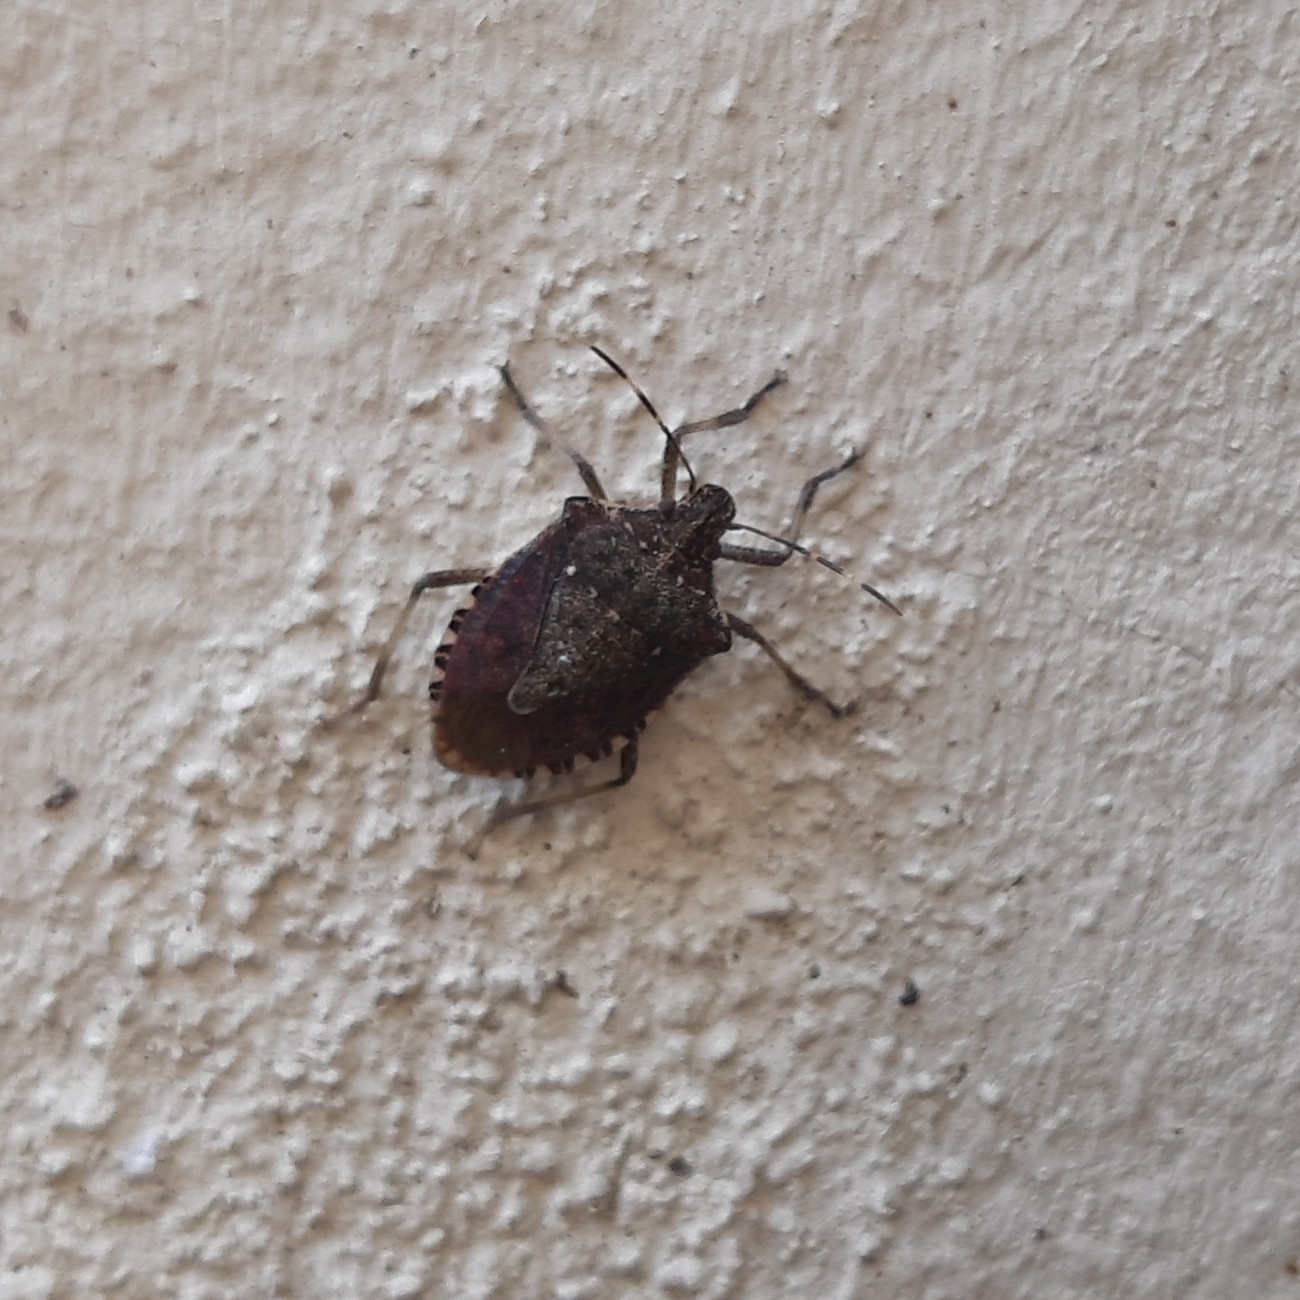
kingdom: Animalia
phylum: Arthropoda
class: Insecta
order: Hemiptera
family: Pentatomidae
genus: Halyomorpha
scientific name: Halyomorpha halys
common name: Brown marmorated stink bug
